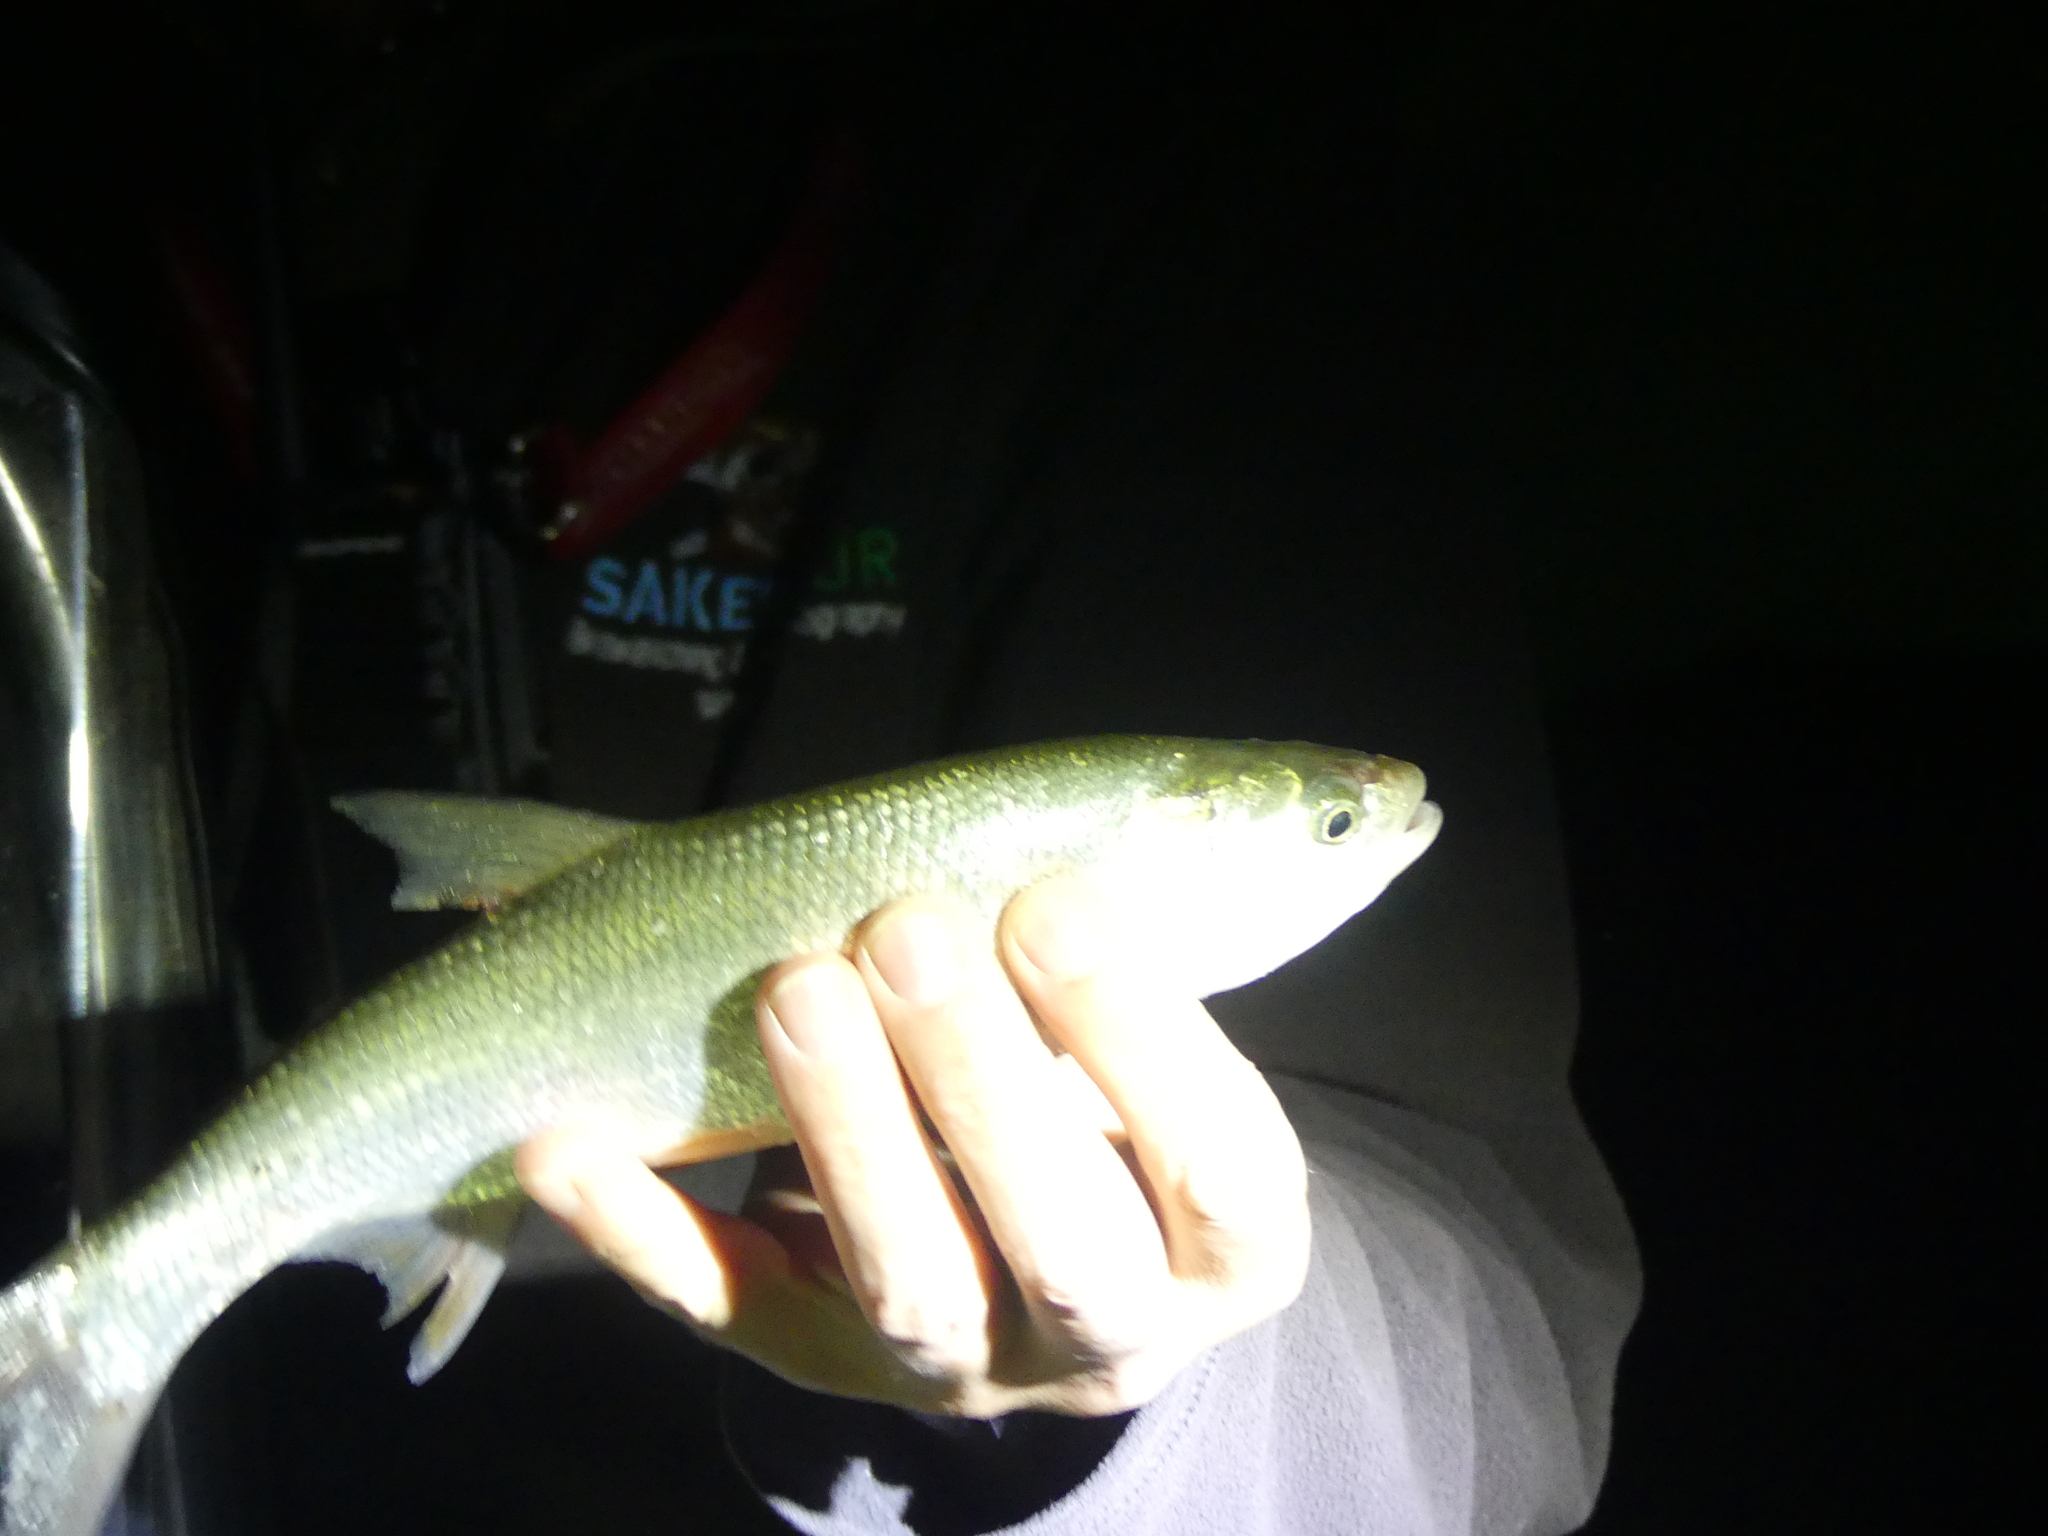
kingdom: Animalia
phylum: Chordata
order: Cypriniformes
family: Cyprinidae
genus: Leuciscus
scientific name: Leuciscus aspius
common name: Asp
